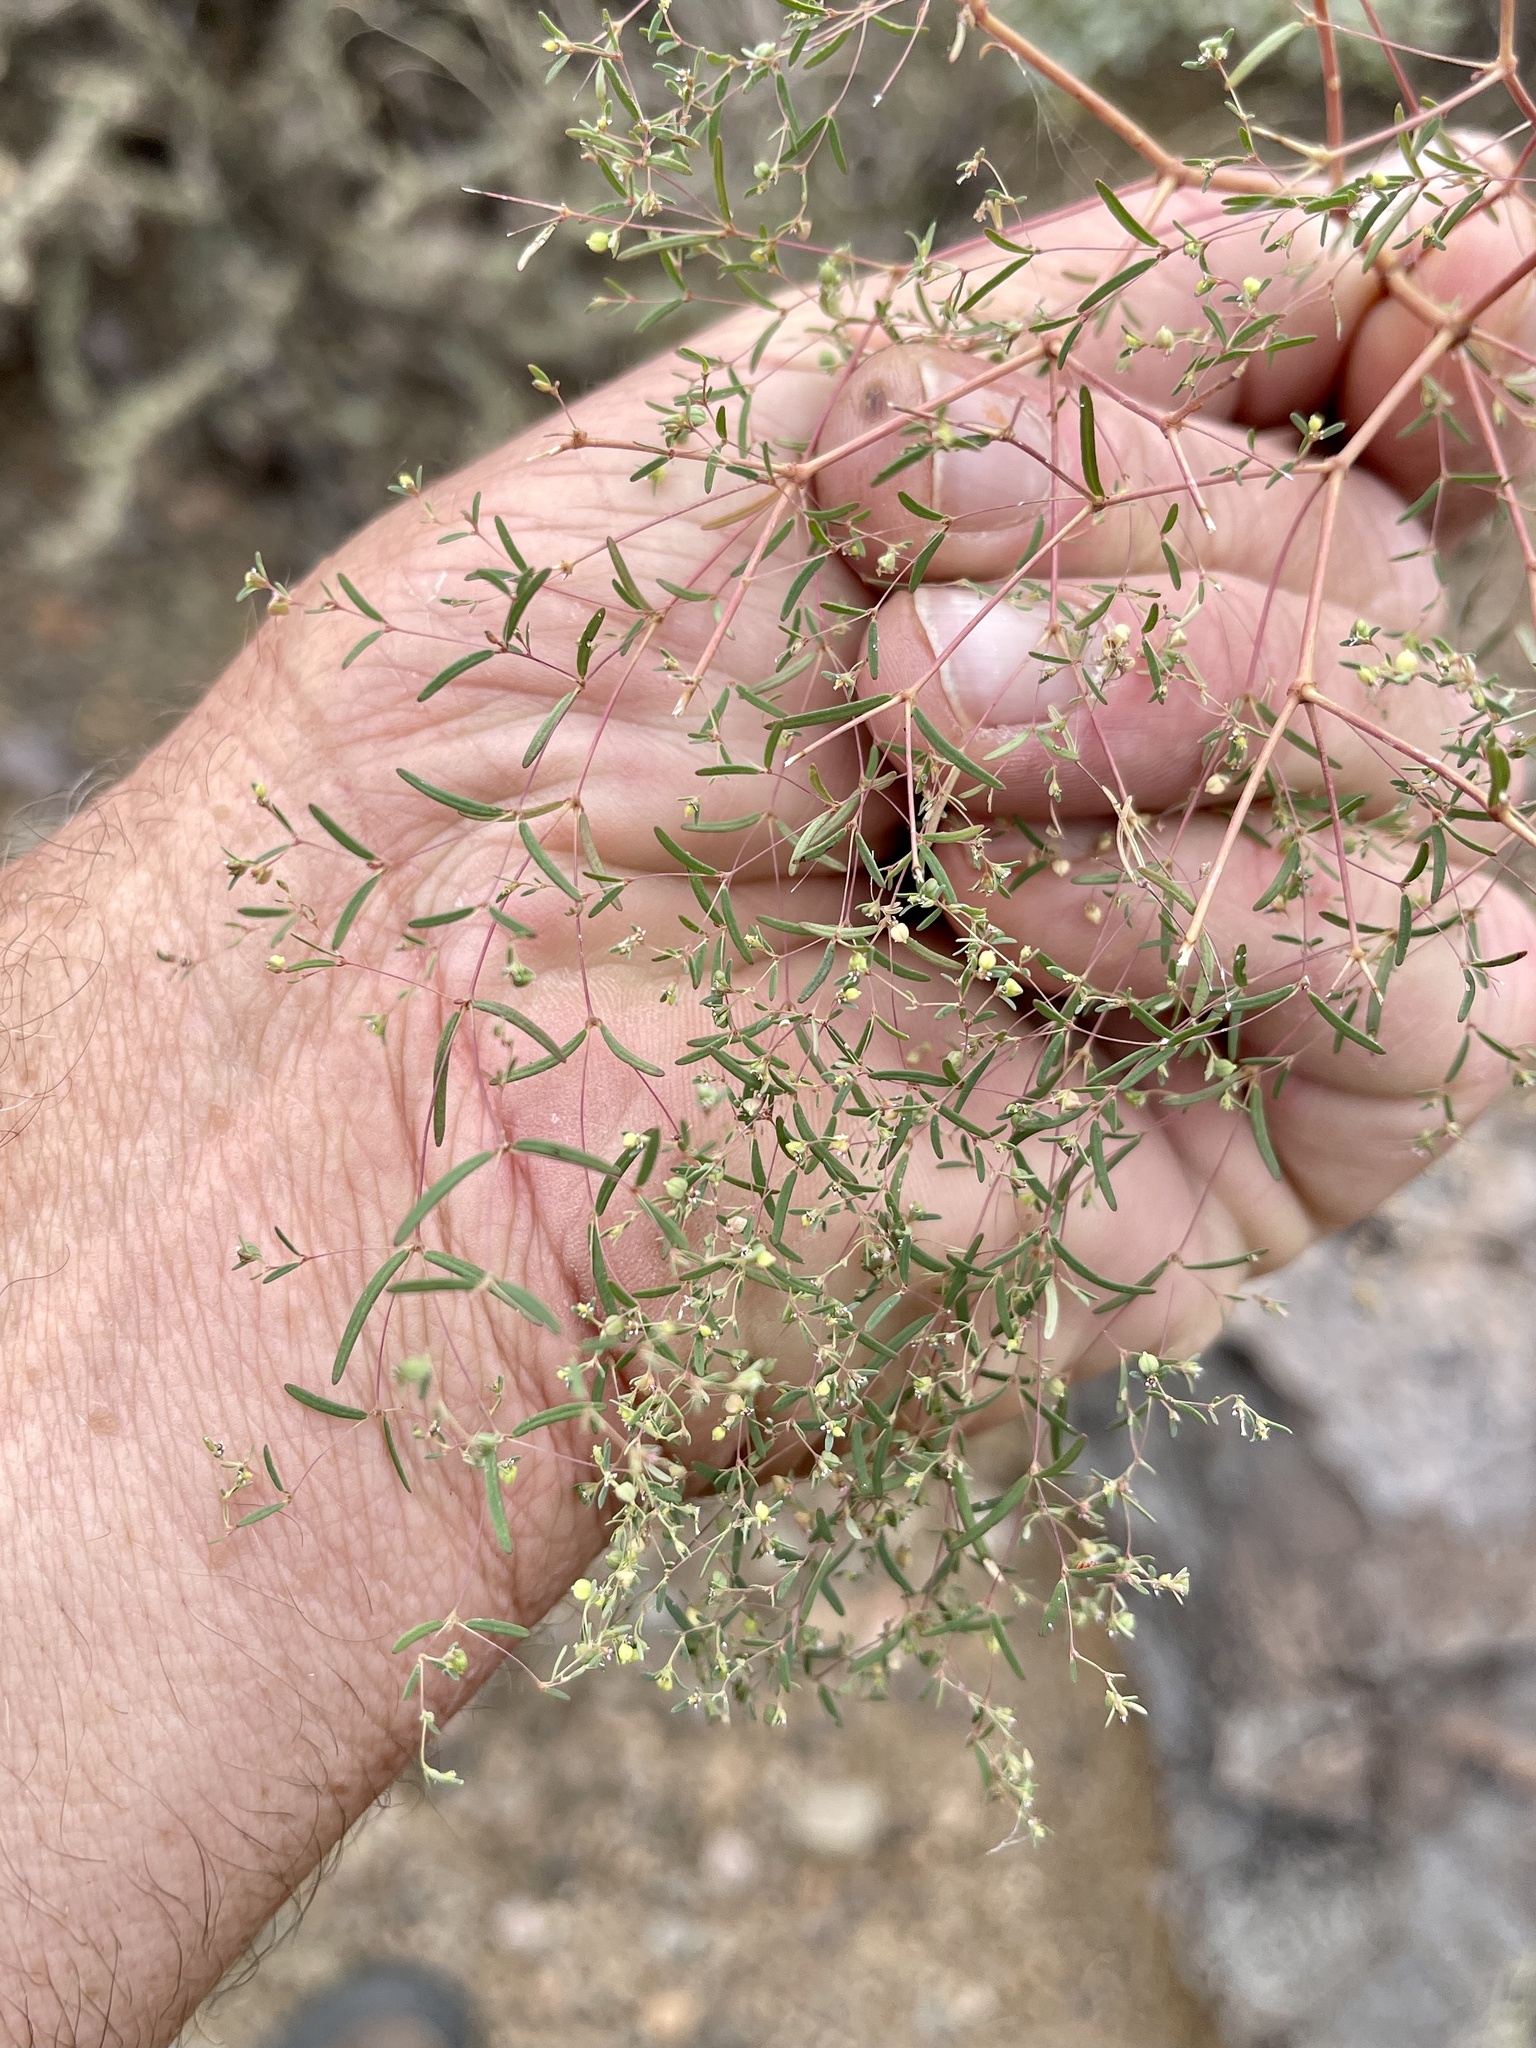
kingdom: Plantae
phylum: Tracheophyta
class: Magnoliopsida
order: Malpighiales
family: Euphorbiaceae
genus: Euphorbia
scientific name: Euphorbia gracillima
